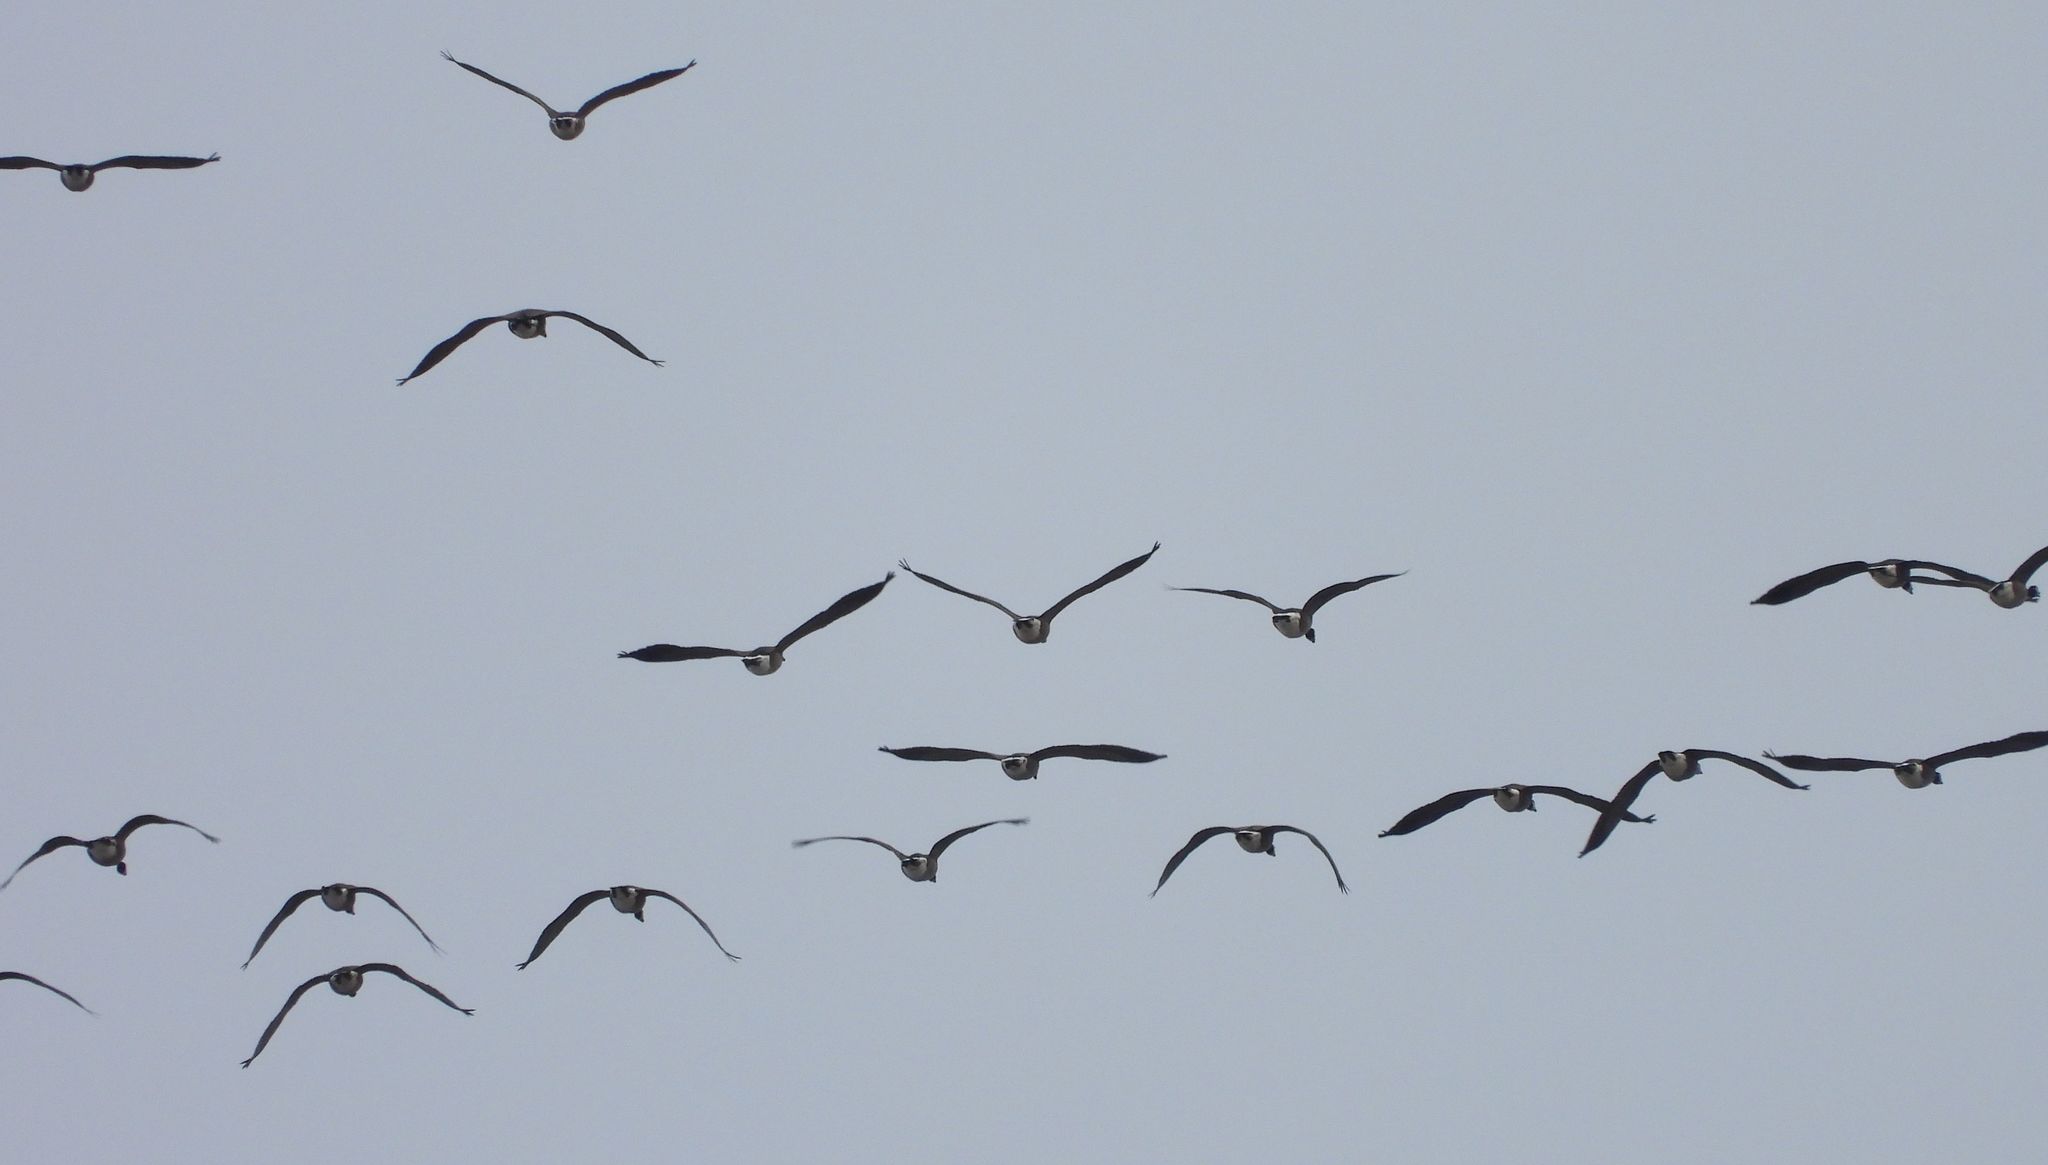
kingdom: Animalia
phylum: Chordata
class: Aves
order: Anseriformes
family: Anatidae
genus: Branta
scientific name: Branta canadensis
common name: Canada goose
